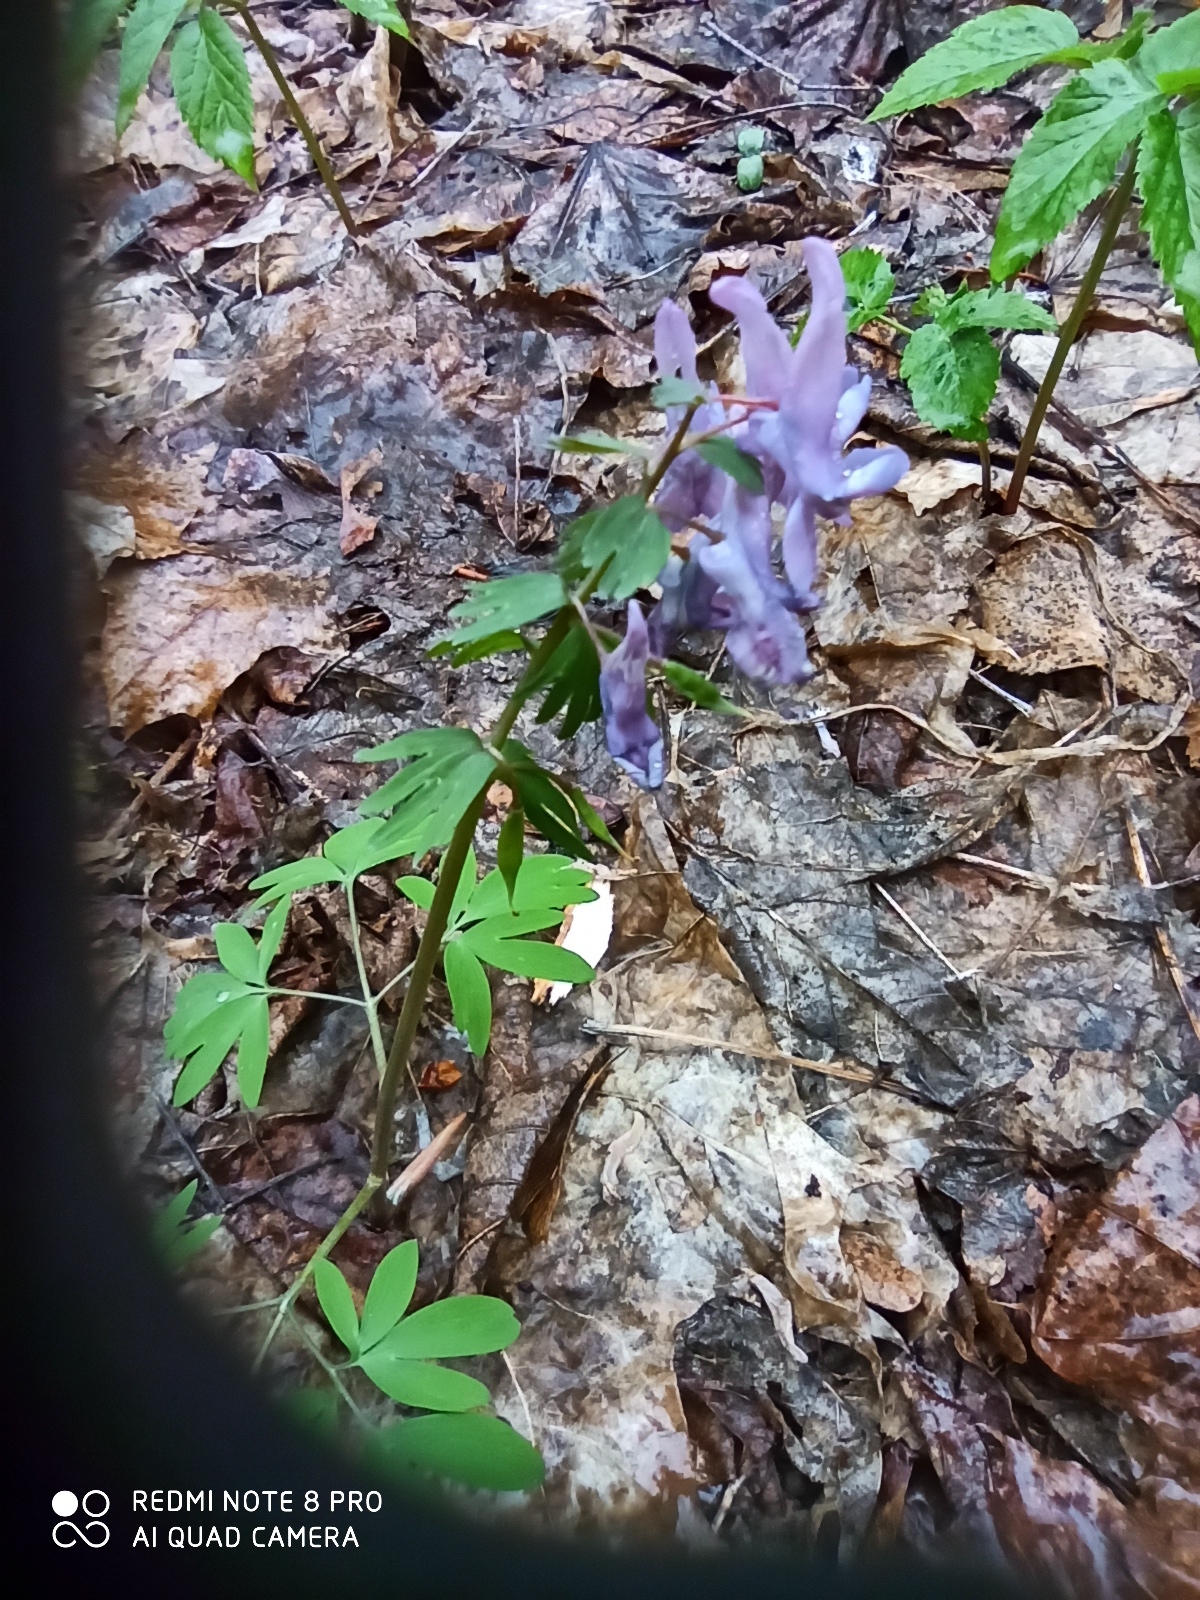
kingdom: Plantae
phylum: Tracheophyta
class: Magnoliopsida
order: Ranunculales
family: Papaveraceae
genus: Corydalis
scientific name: Corydalis solida
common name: Bird-in-a-bush
